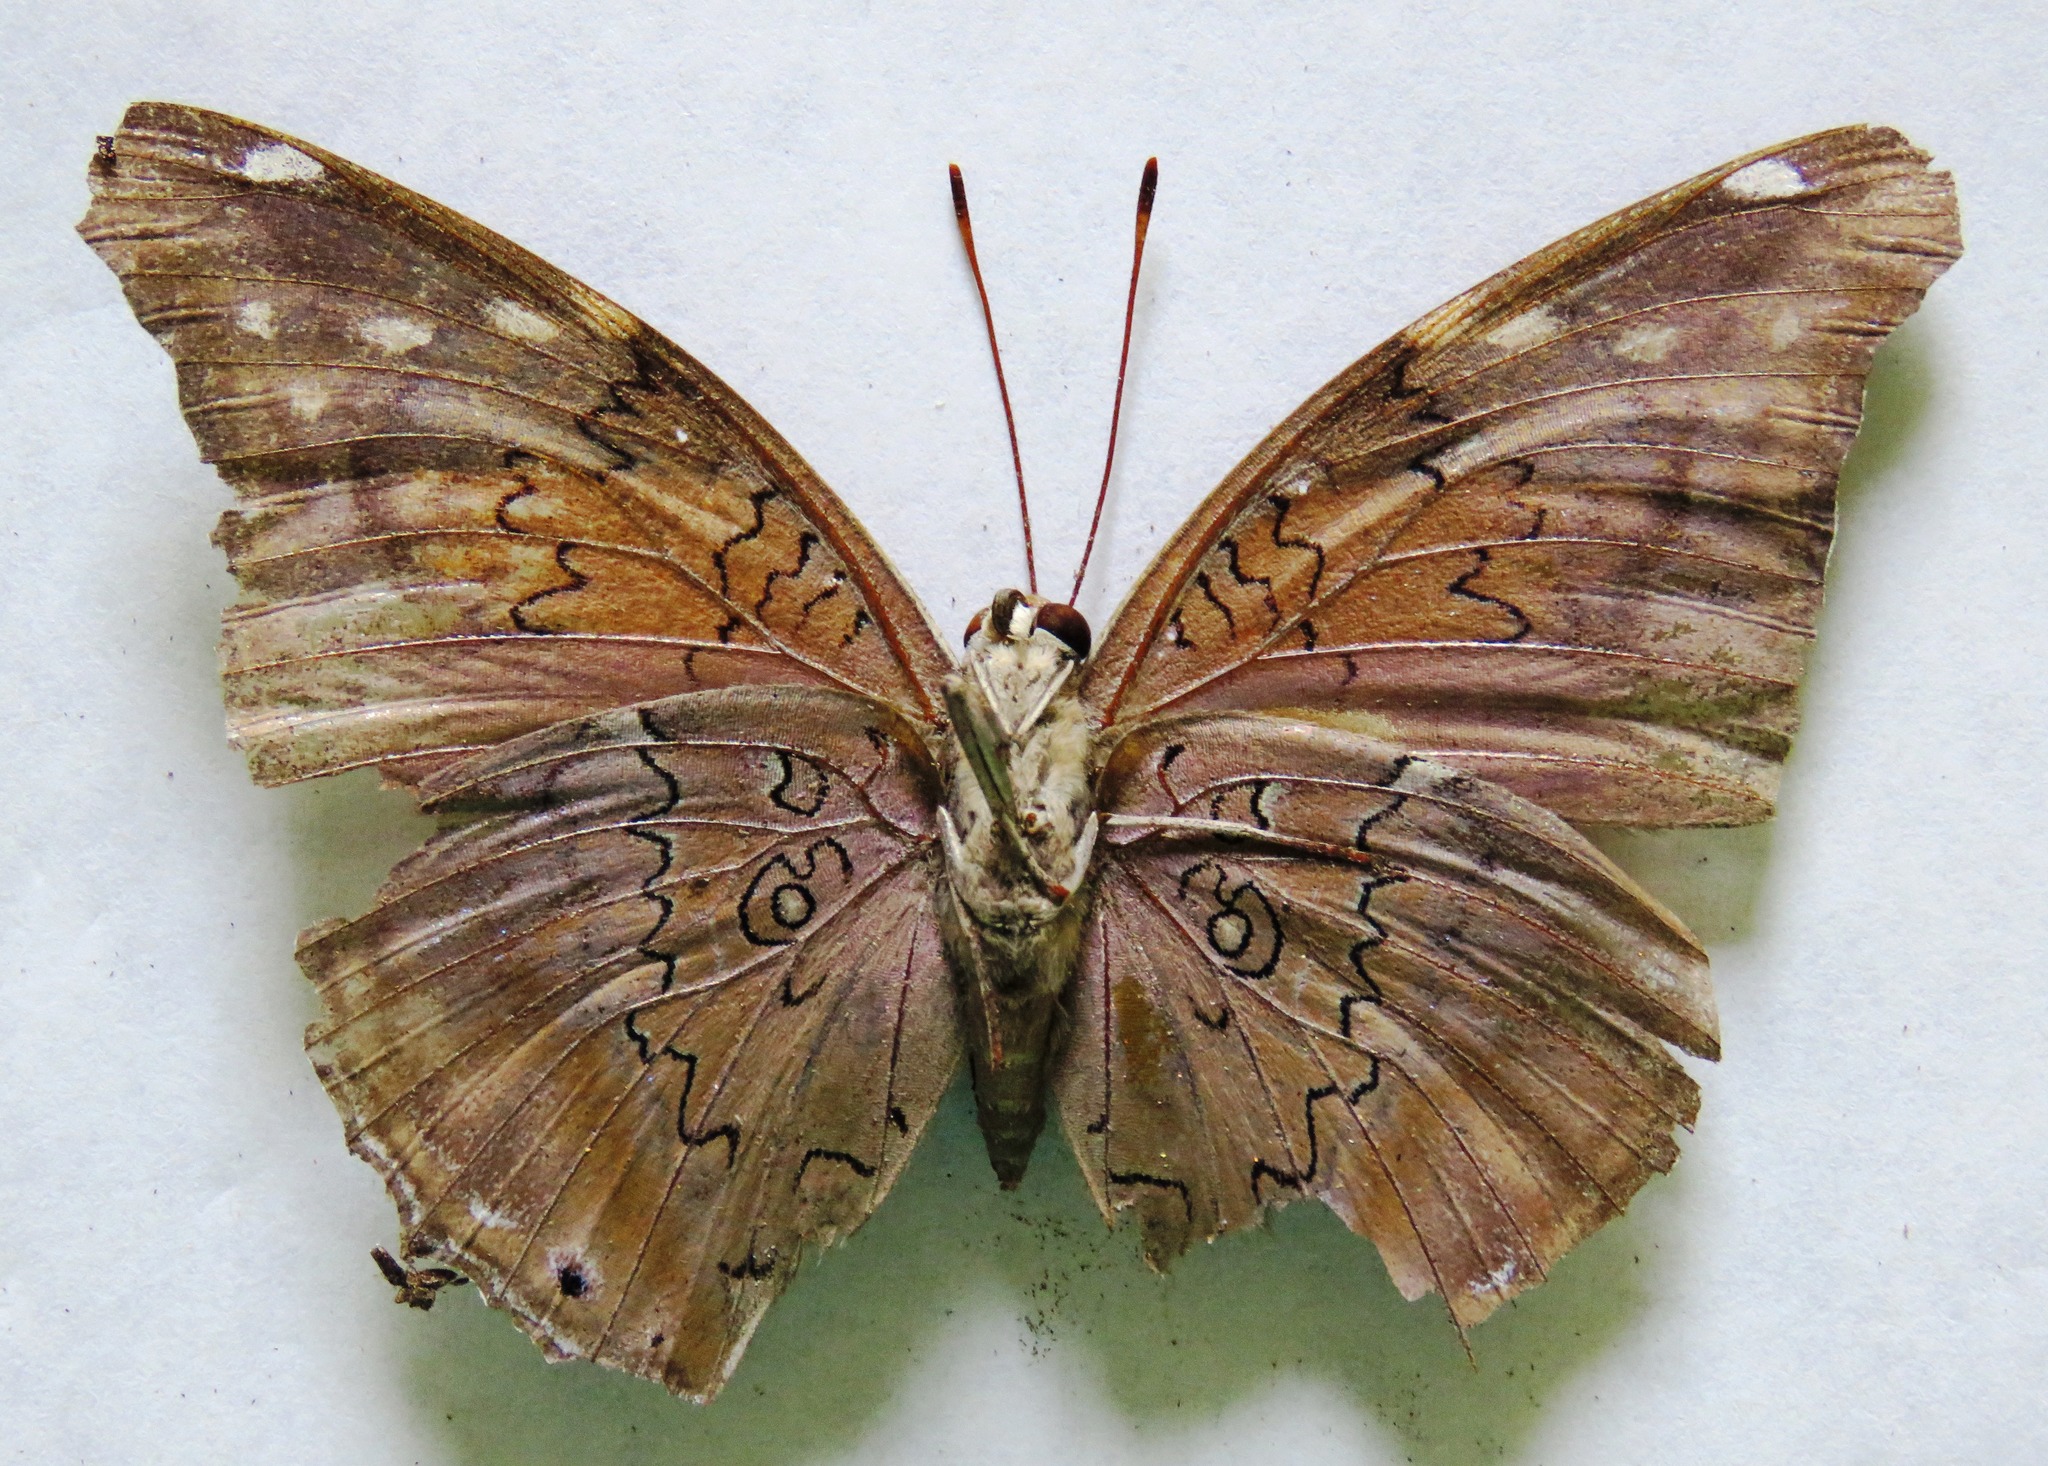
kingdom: Animalia
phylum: Arthropoda
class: Insecta
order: Lepidoptera
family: Nymphalidae
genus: Coea
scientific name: Coea acheronta
